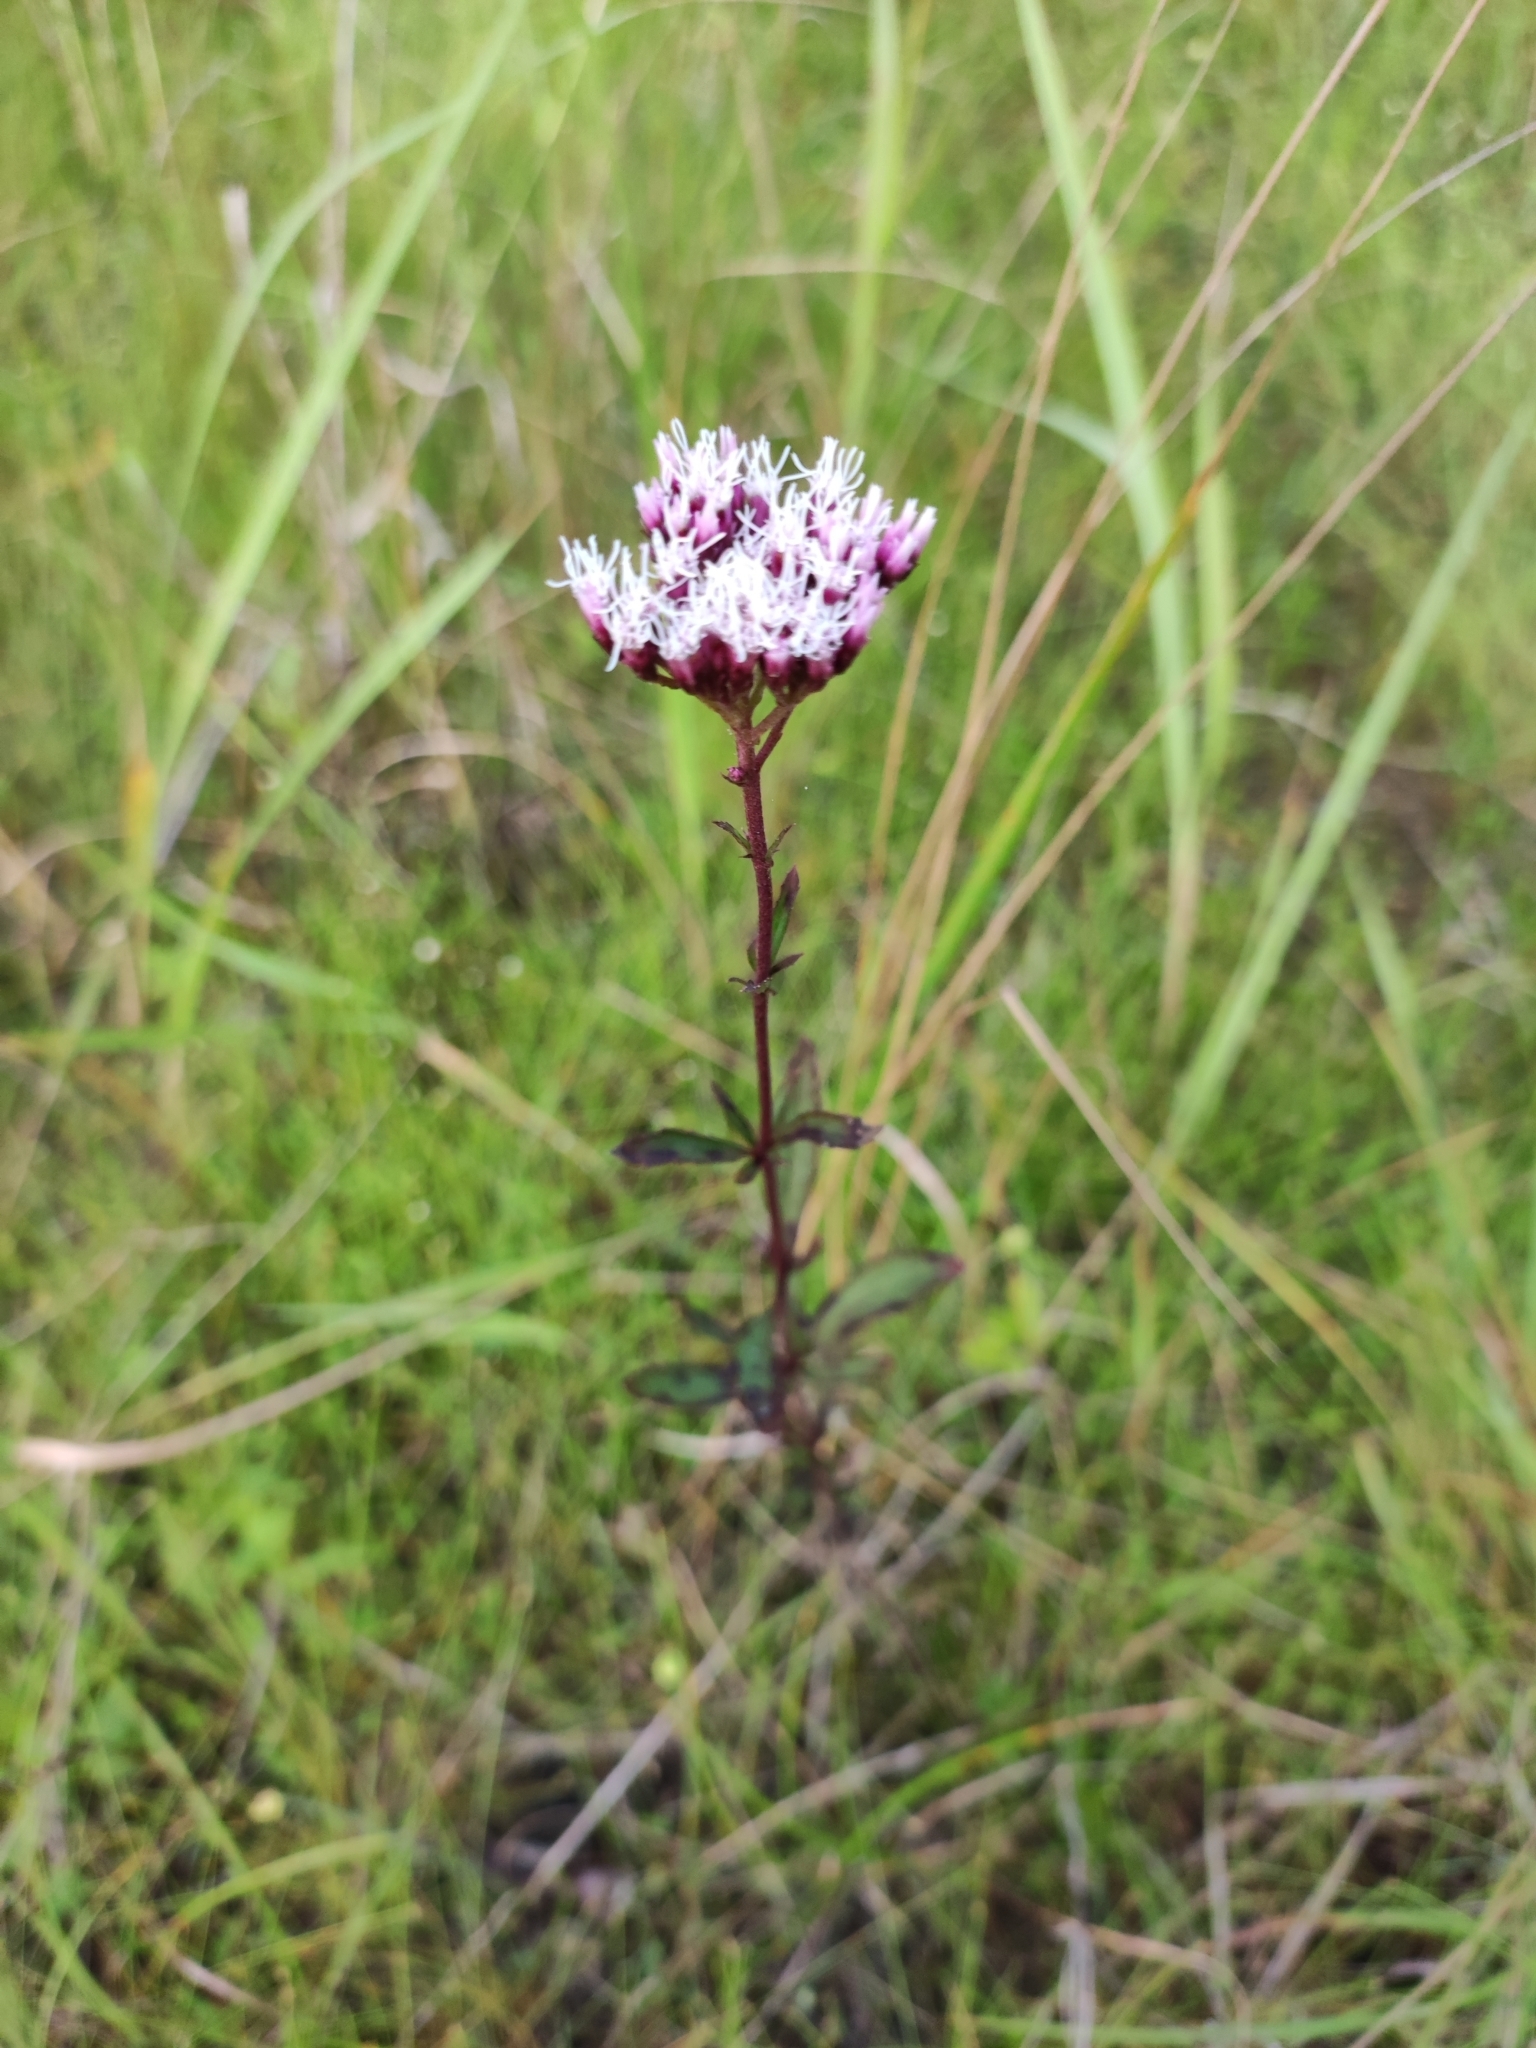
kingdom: Plantae
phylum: Tracheophyta
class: Magnoliopsida
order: Asterales
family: Asteraceae
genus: Eupatorium
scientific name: Eupatorium lindleyanum
